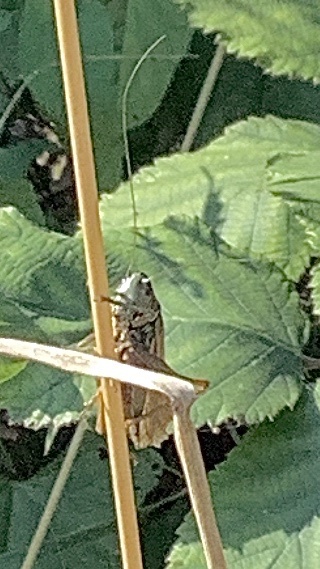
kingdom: Animalia
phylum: Arthropoda
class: Insecta
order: Orthoptera
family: Tettigoniidae
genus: Roeseliana
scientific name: Roeseliana roeselii
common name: Roesel's bush cricket
